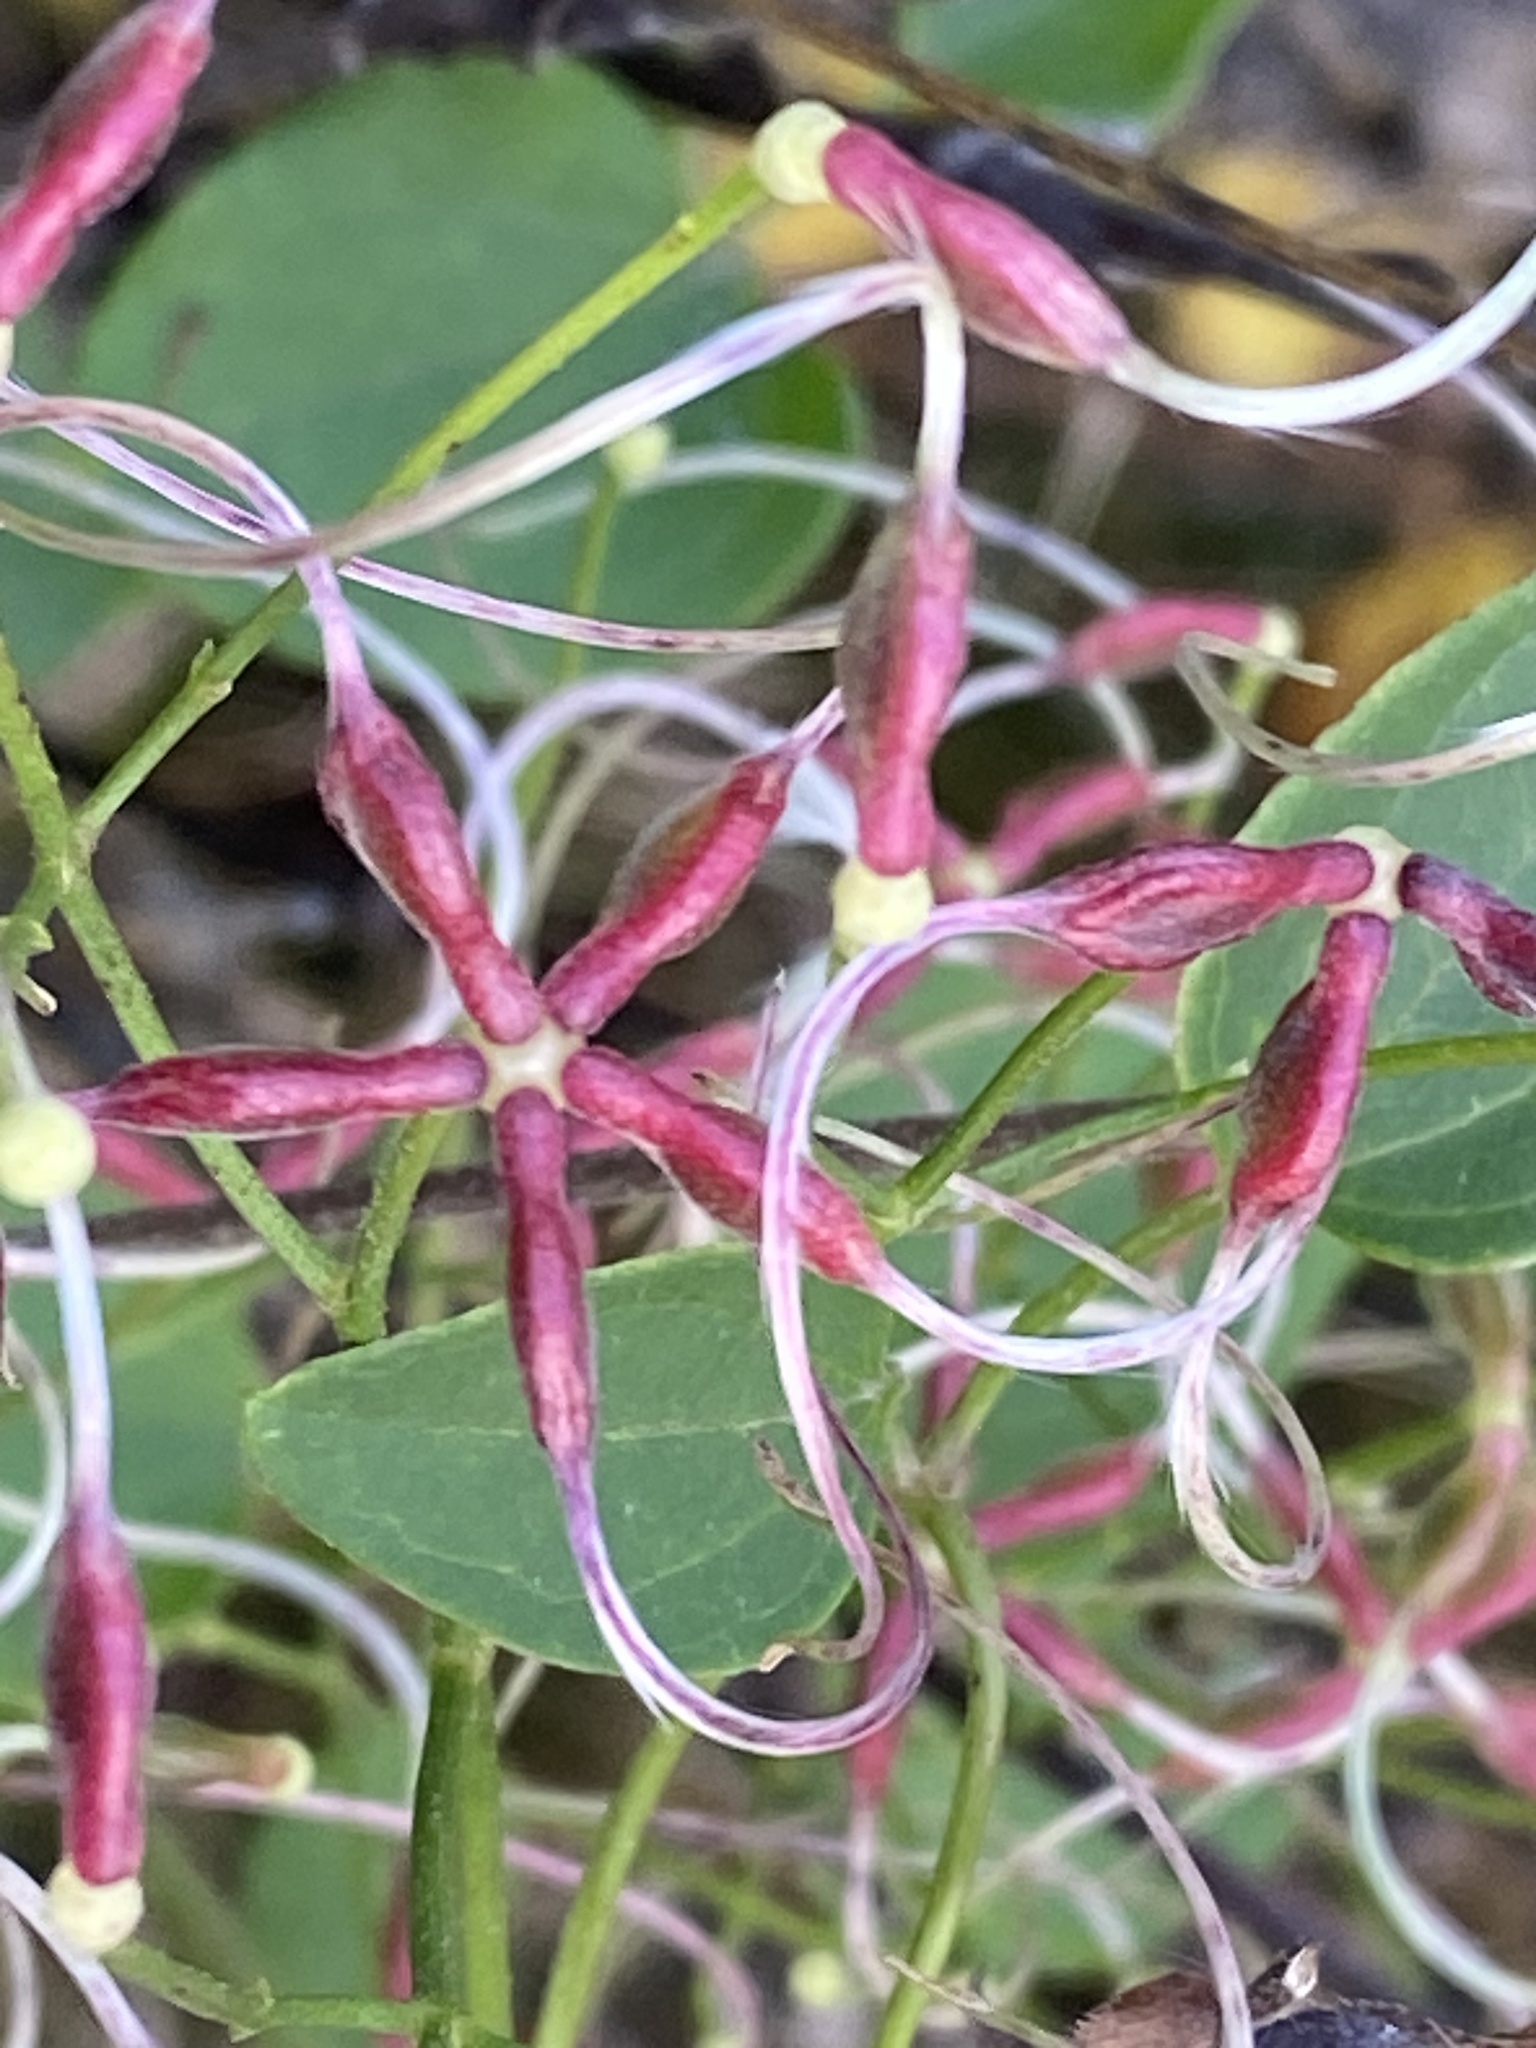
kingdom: Plantae
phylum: Tracheophyta
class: Magnoliopsida
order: Ranunculales
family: Ranunculaceae
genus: Clematis
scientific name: Clematis terniflora
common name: Sweet autumn clematis
